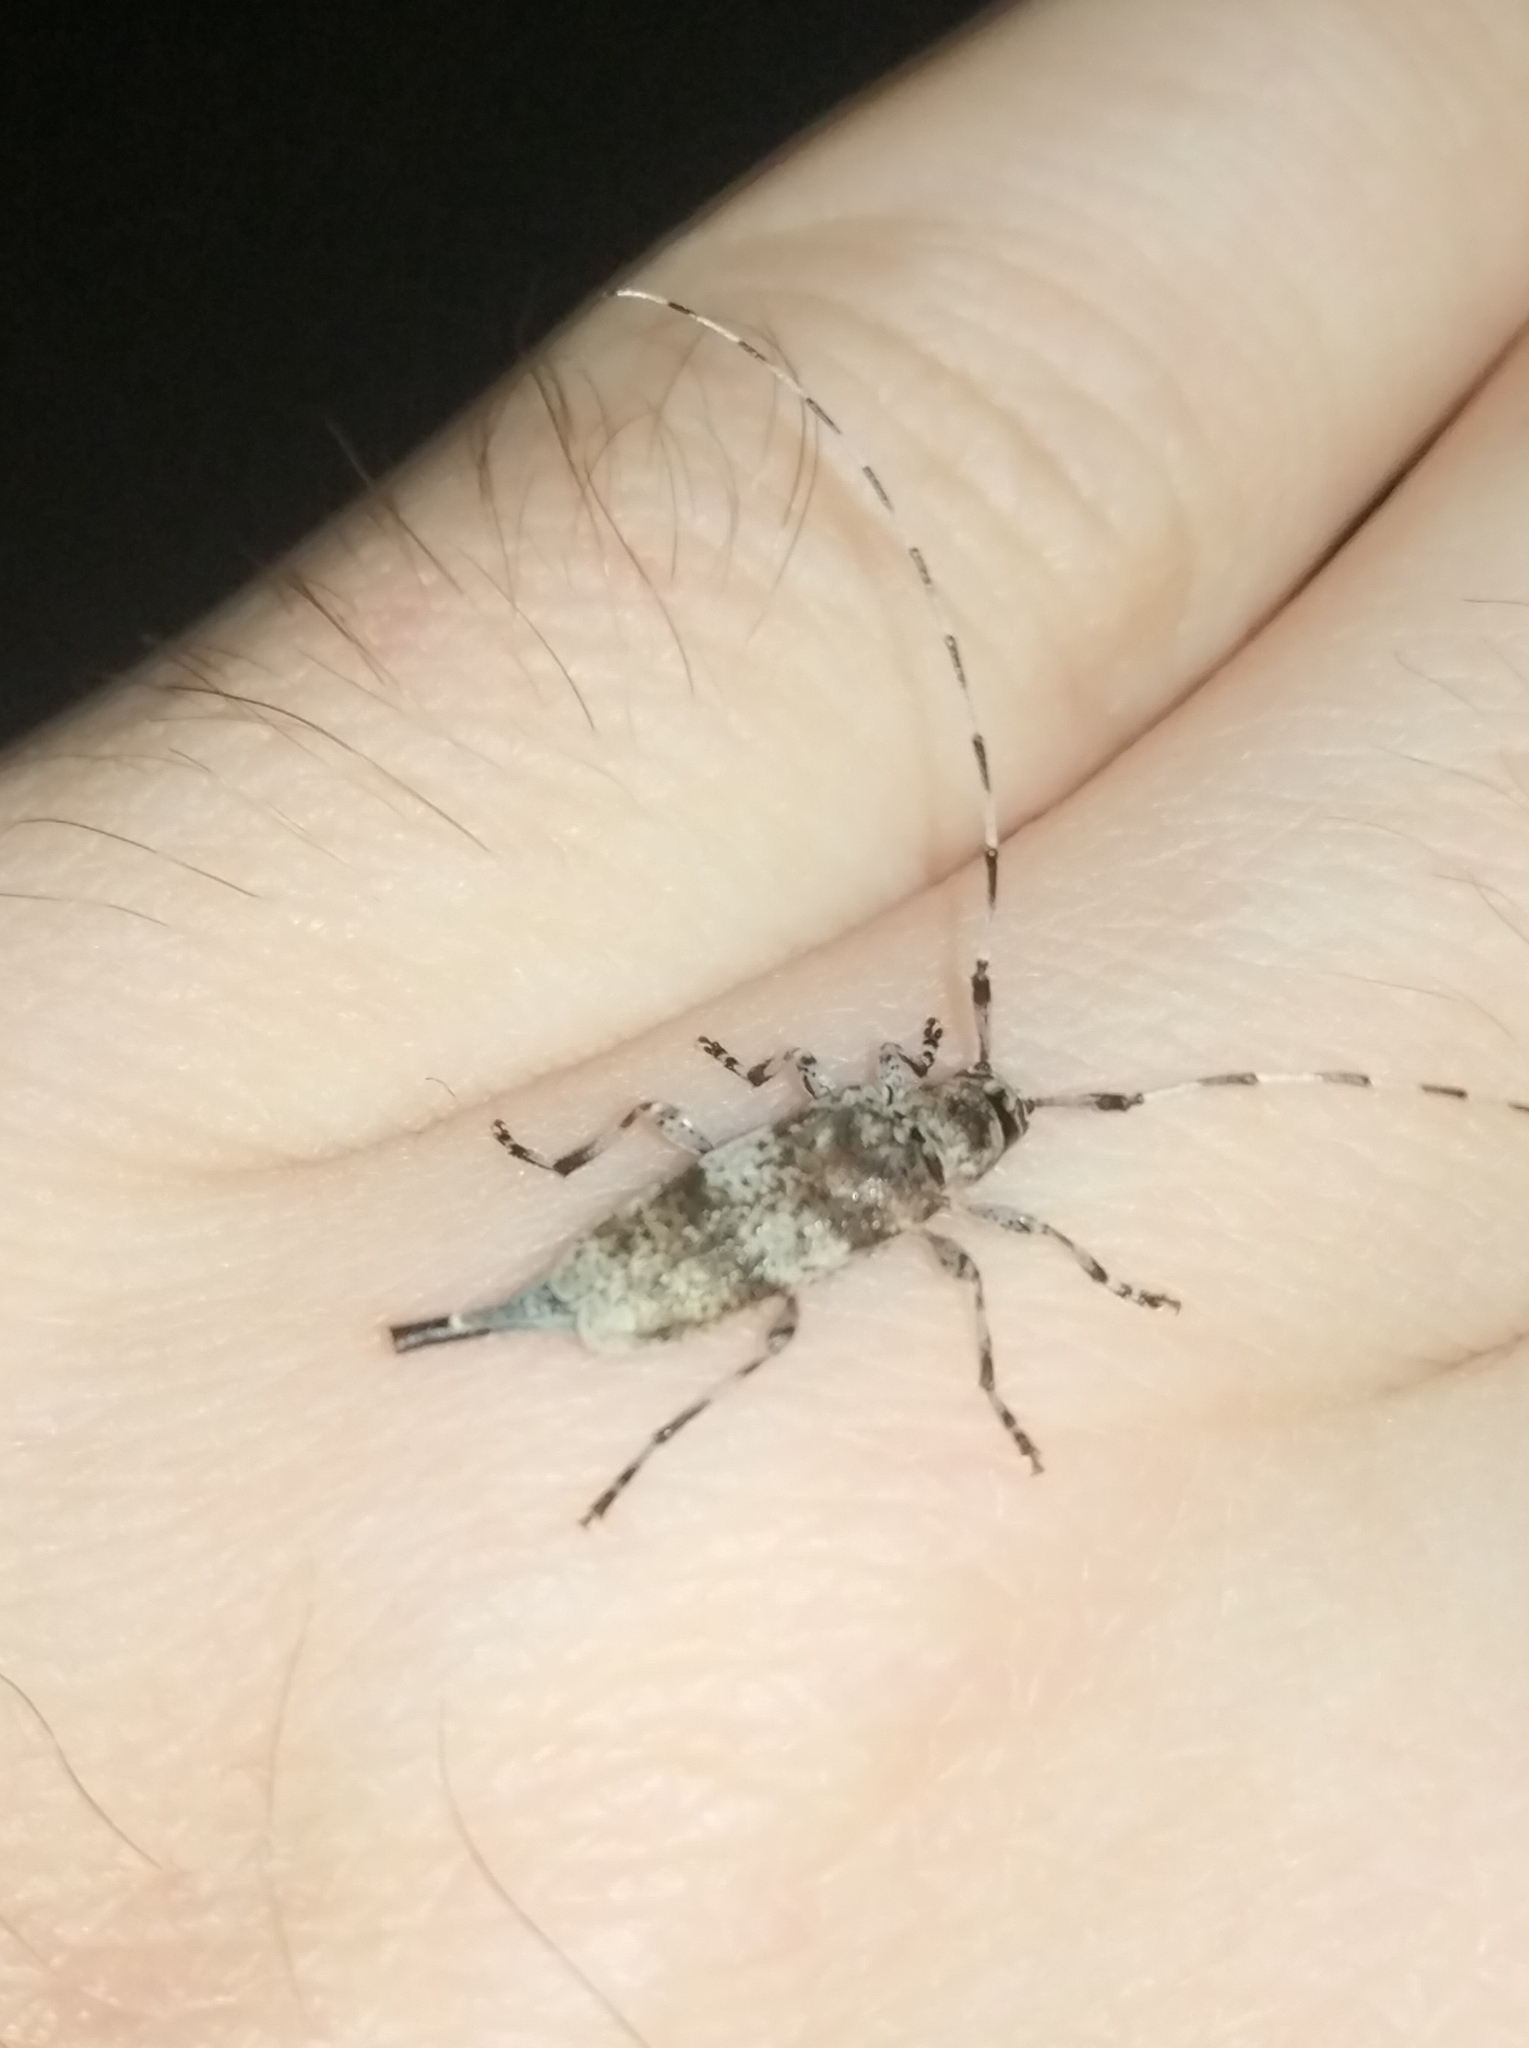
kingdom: Animalia
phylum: Arthropoda
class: Insecta
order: Coleoptera
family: Cerambycidae
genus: Acanthocinus
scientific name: Acanthocinus griseus
